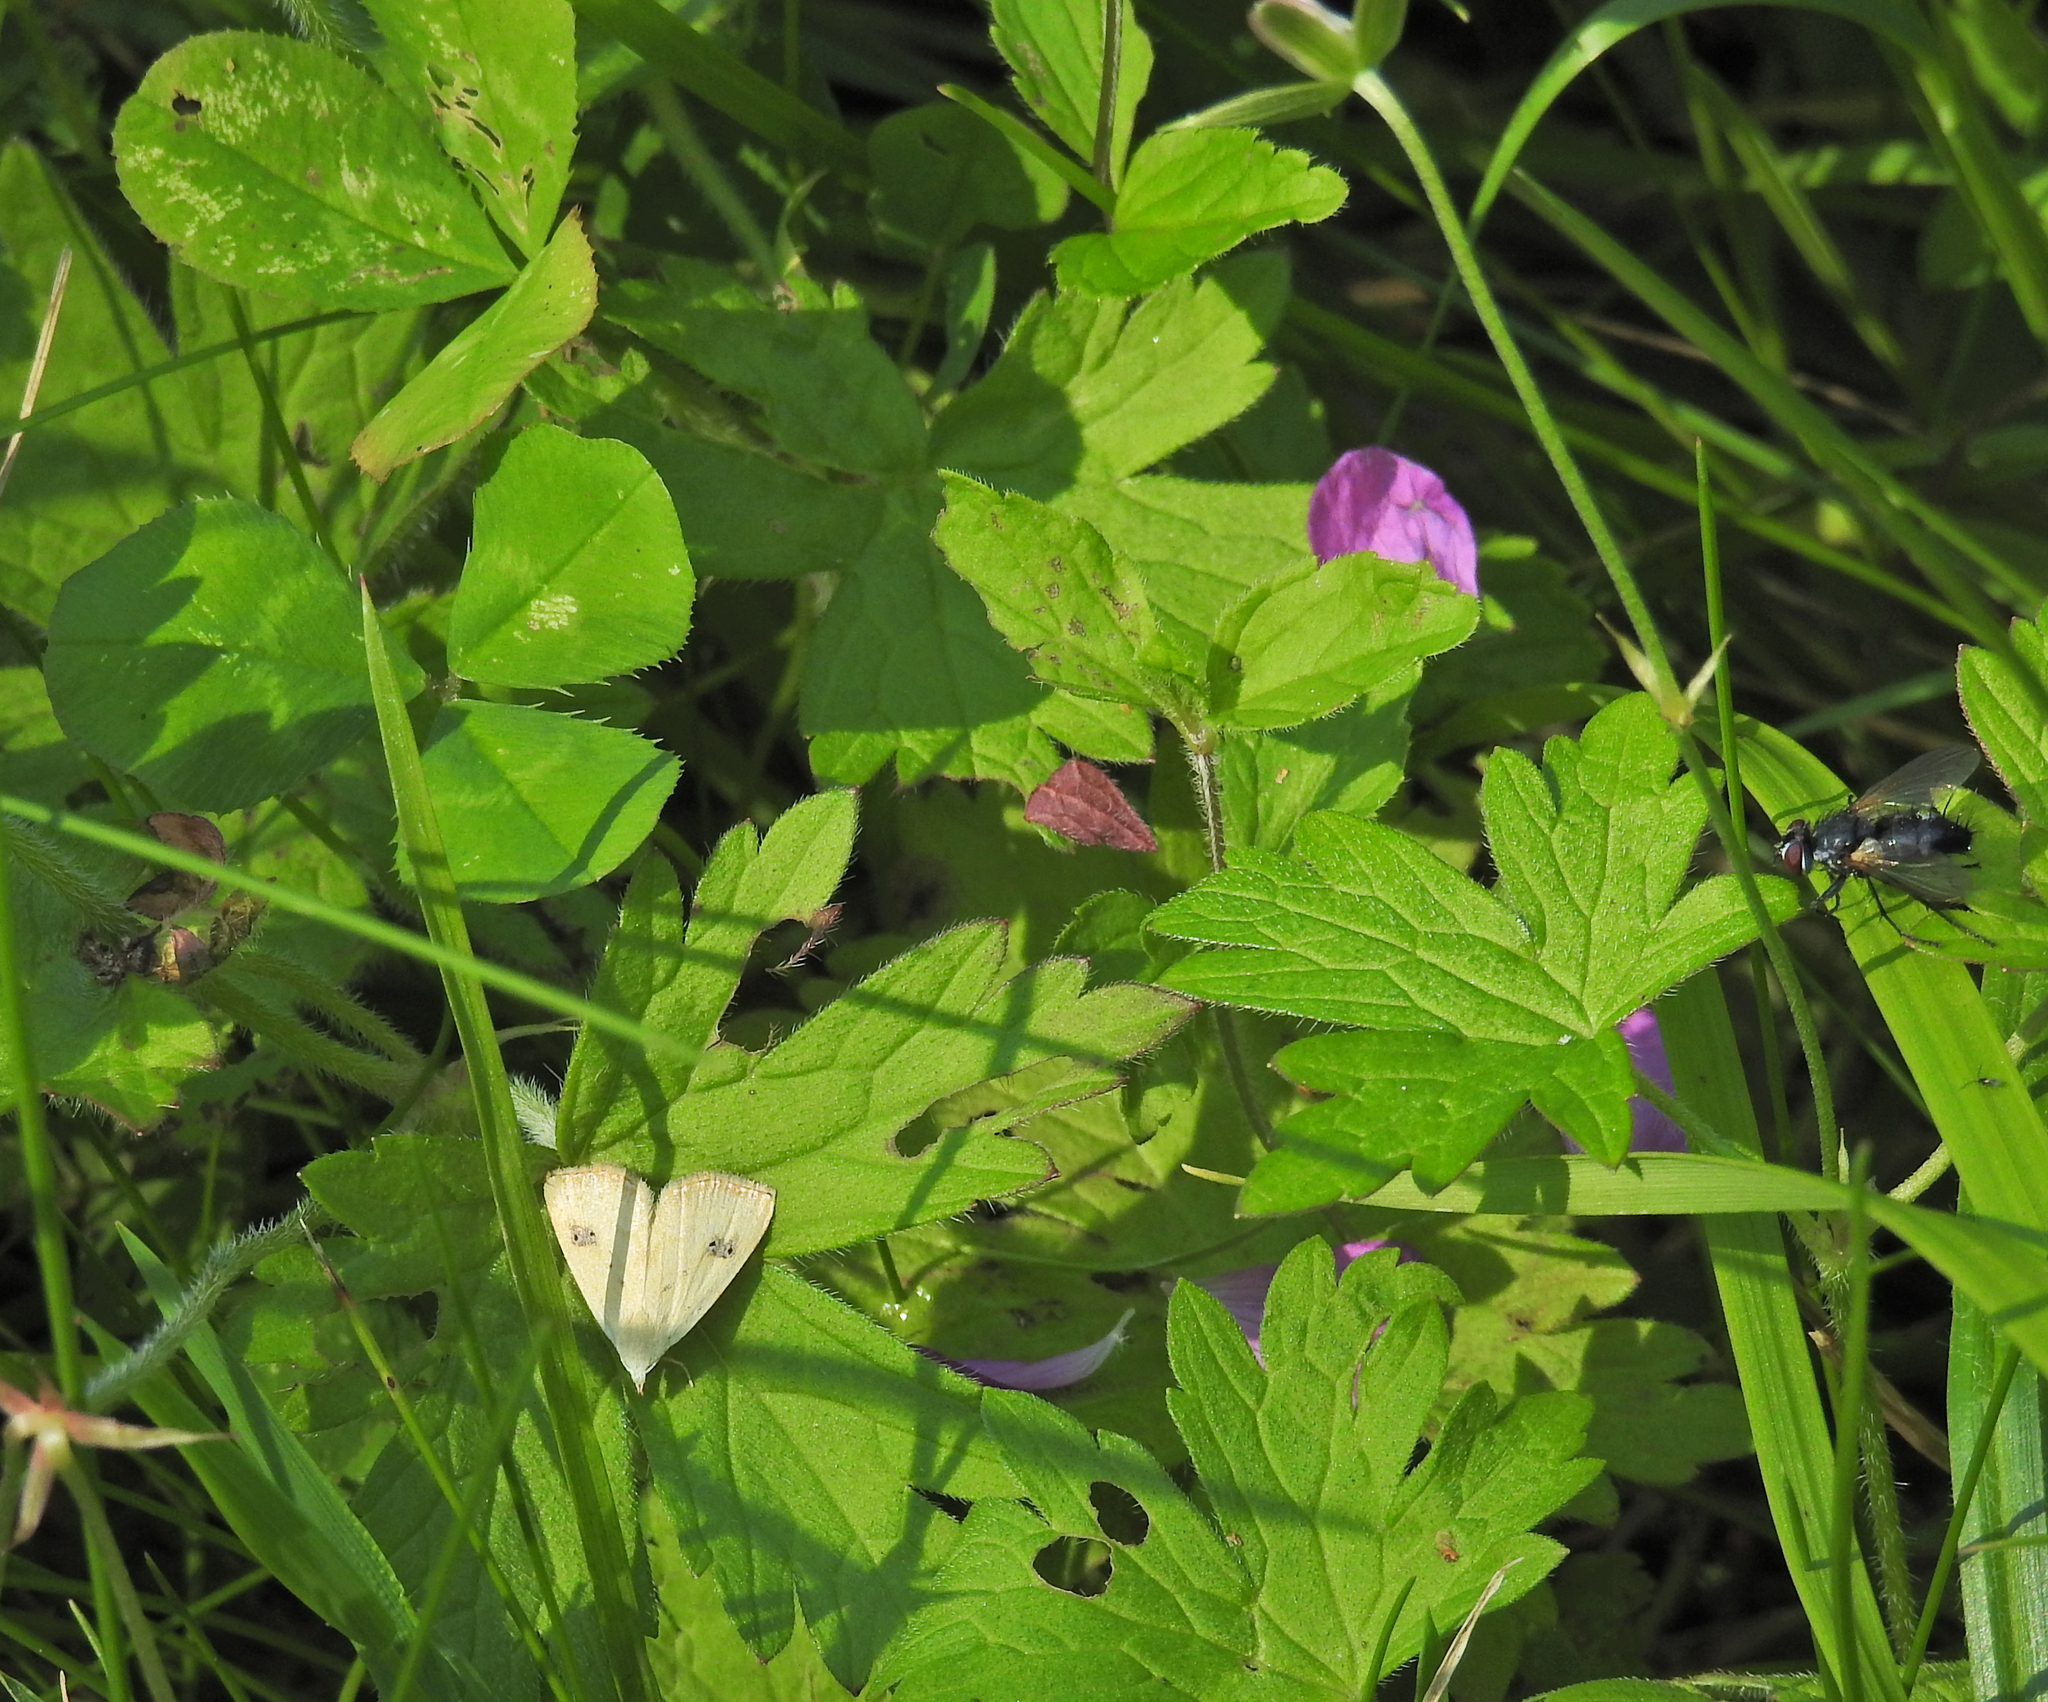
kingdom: Animalia
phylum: Arthropoda
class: Insecta
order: Lepidoptera
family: Erebidae
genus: Rivula
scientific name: Rivula sericealis
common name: Straw dot
